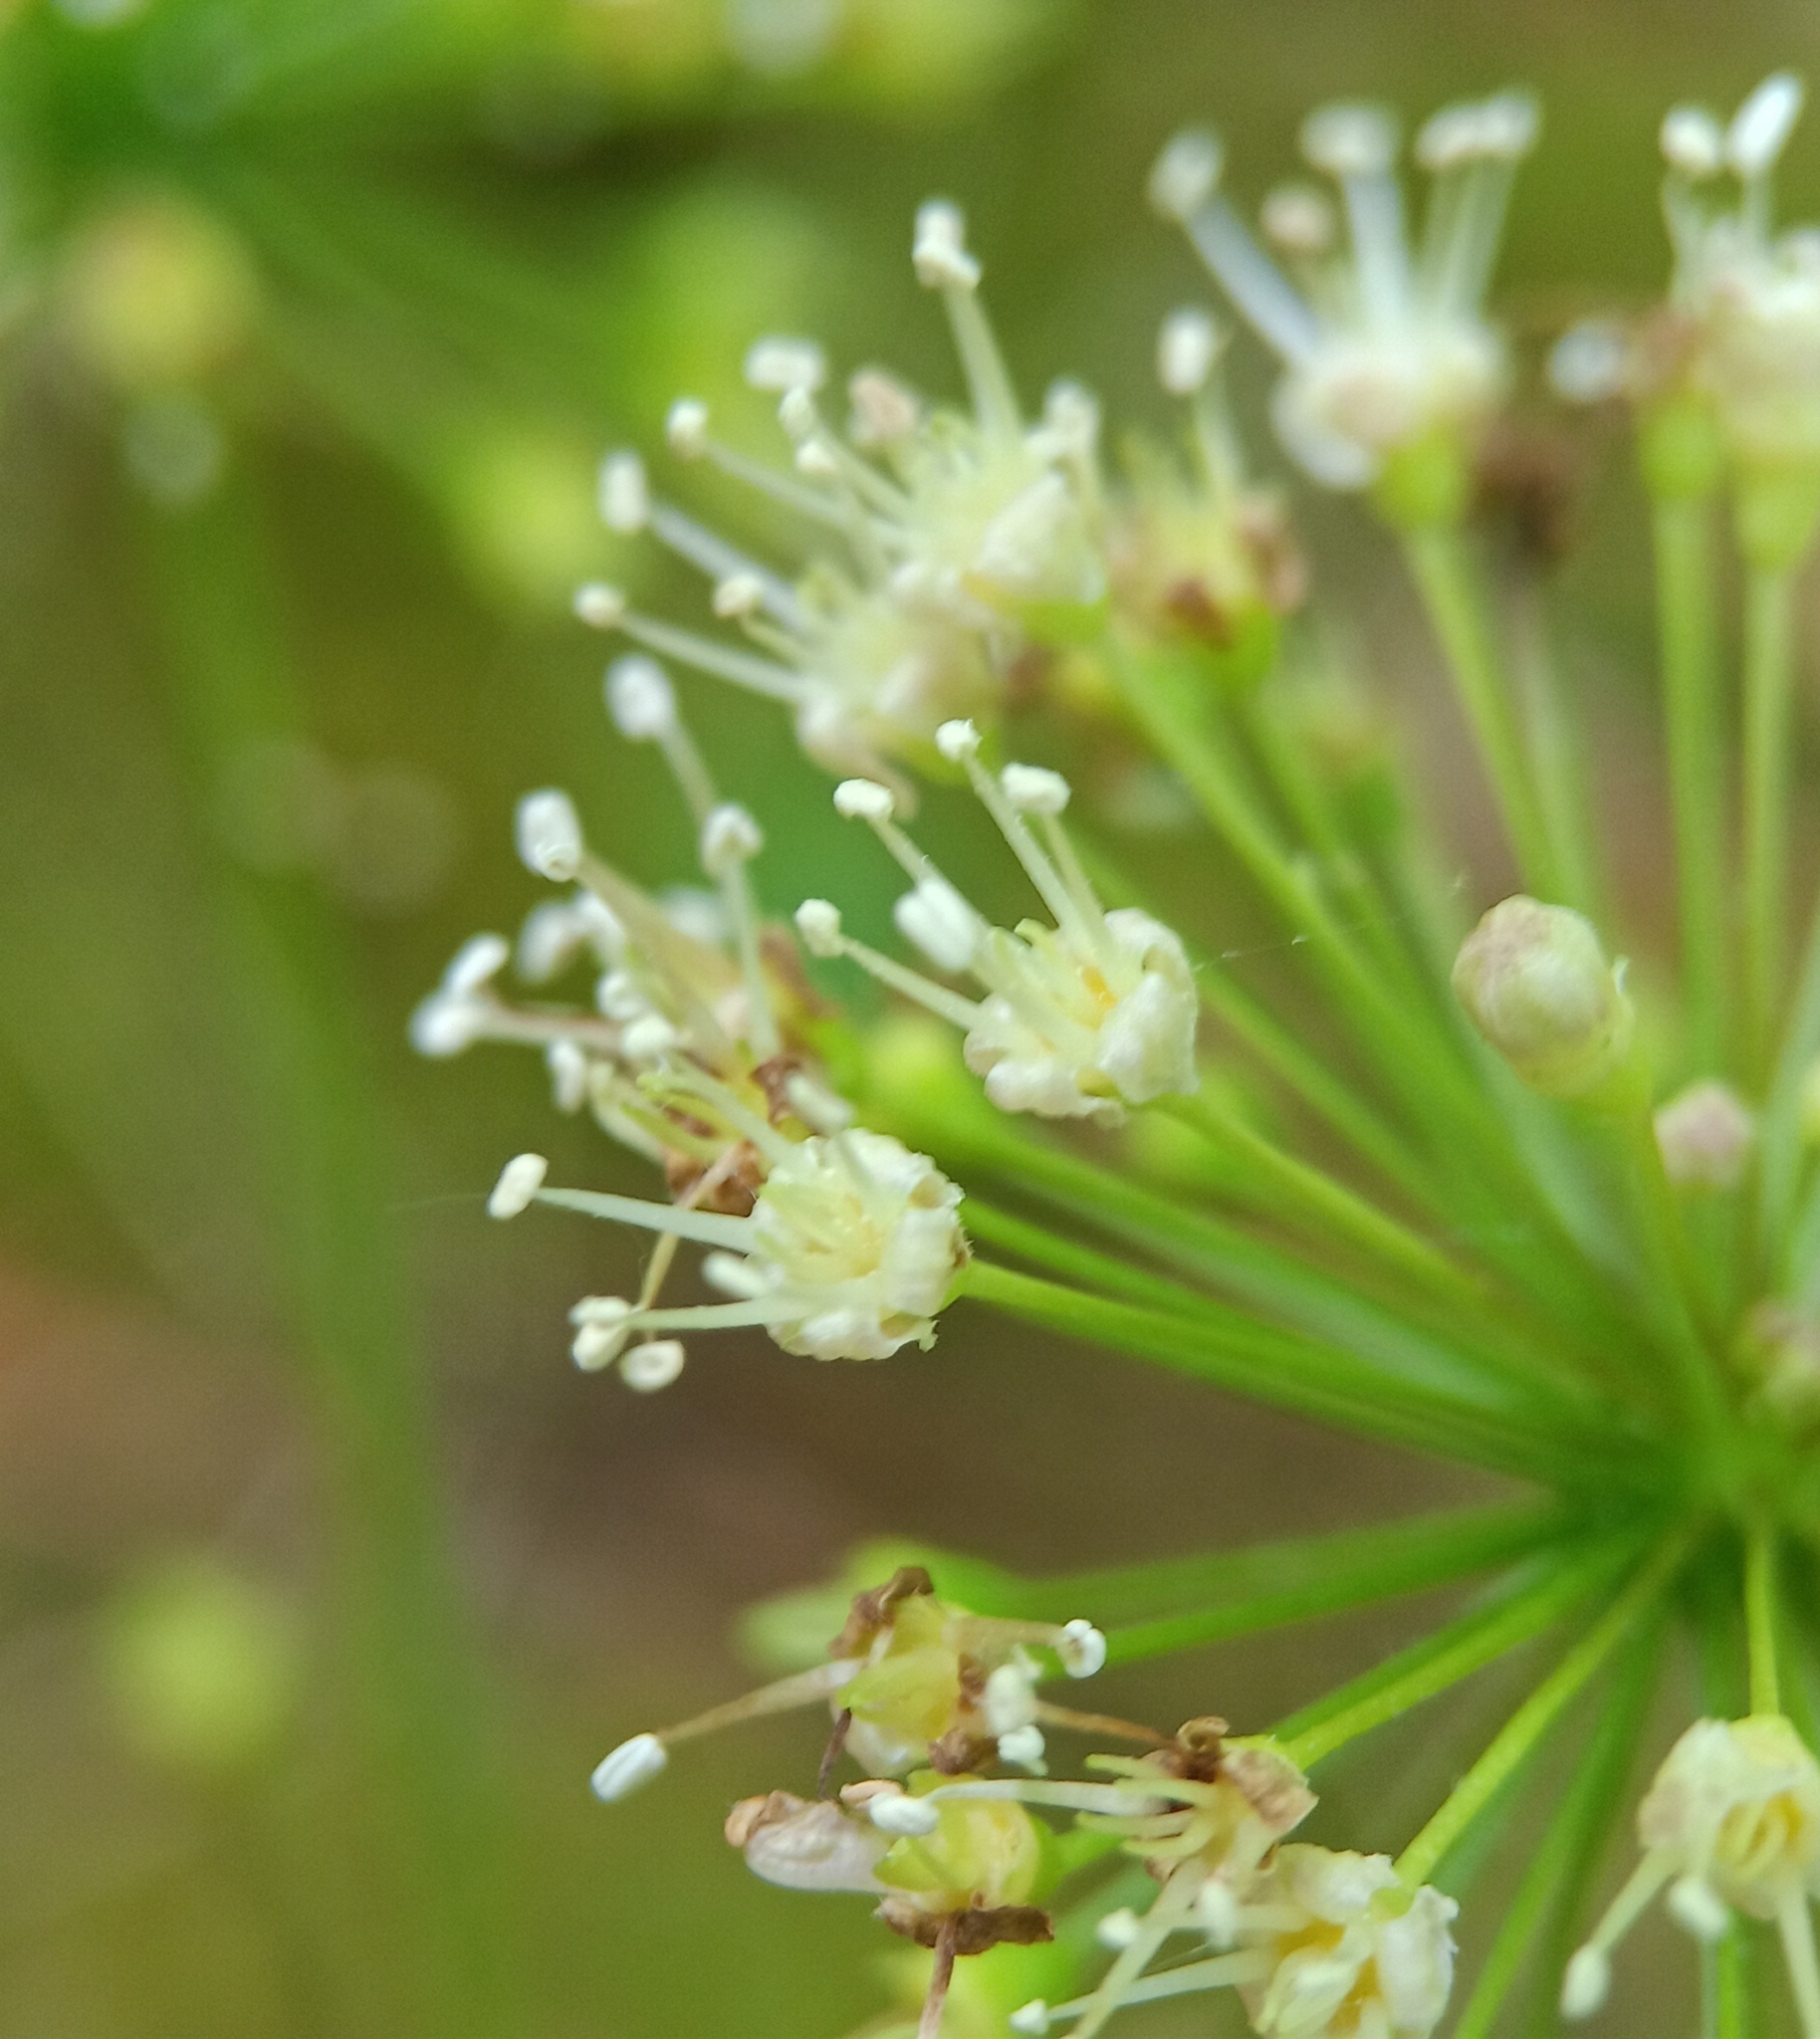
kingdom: Plantae
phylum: Tracheophyta
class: Magnoliopsida
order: Apiales
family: Araliaceae
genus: Aralia
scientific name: Aralia nudicaulis
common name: Wild sarsaparilla
